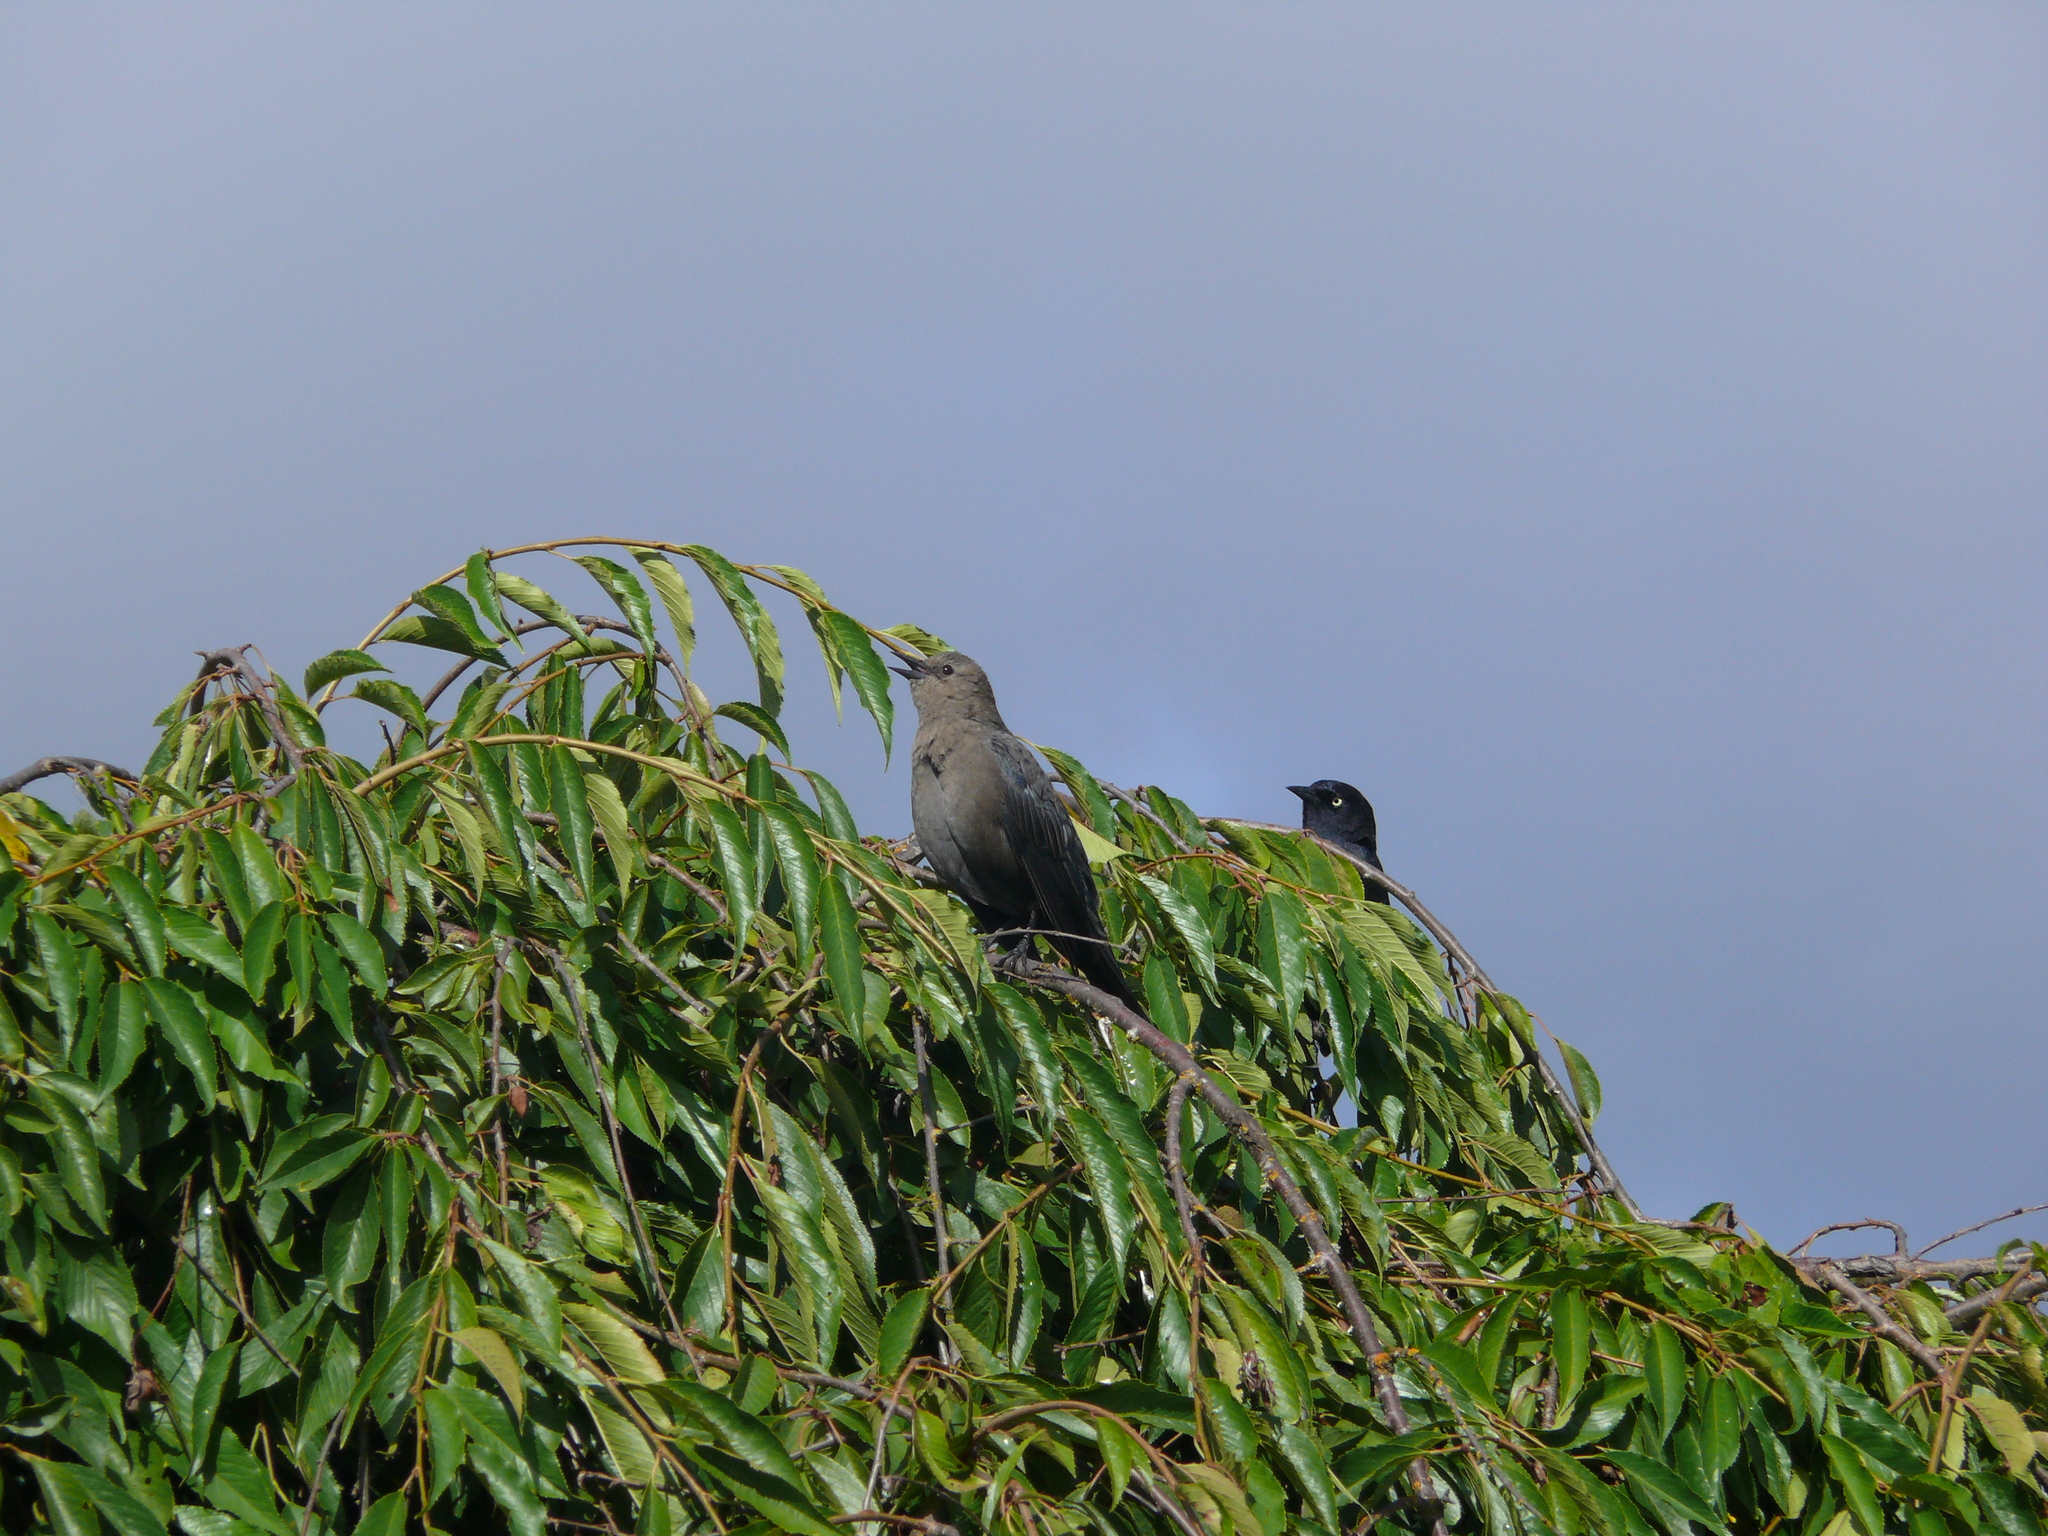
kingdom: Animalia
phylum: Chordata
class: Aves
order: Passeriformes
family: Icteridae
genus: Euphagus
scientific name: Euphagus cyanocephalus
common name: Brewer's blackbird
